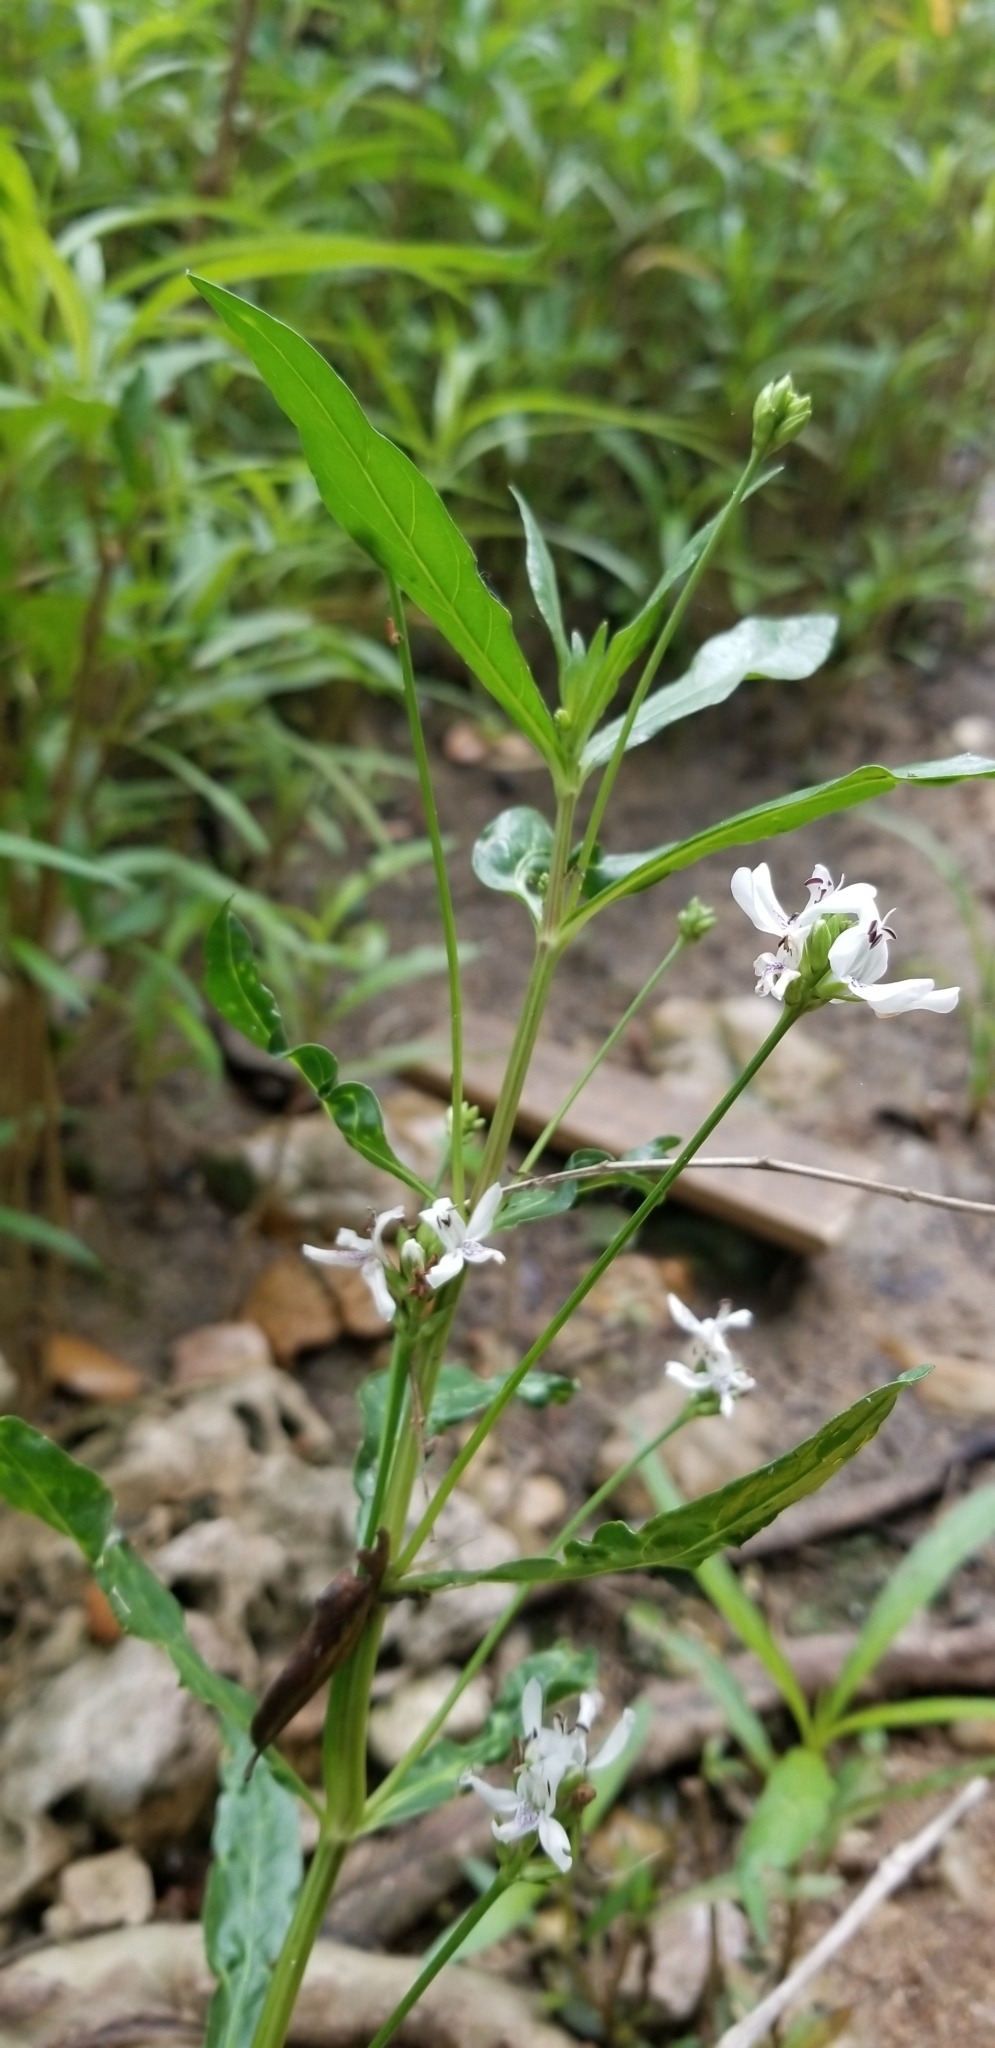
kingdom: Plantae
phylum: Tracheophyta
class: Magnoliopsida
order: Lamiales
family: Acanthaceae
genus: Dianthera
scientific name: Dianthera americana
